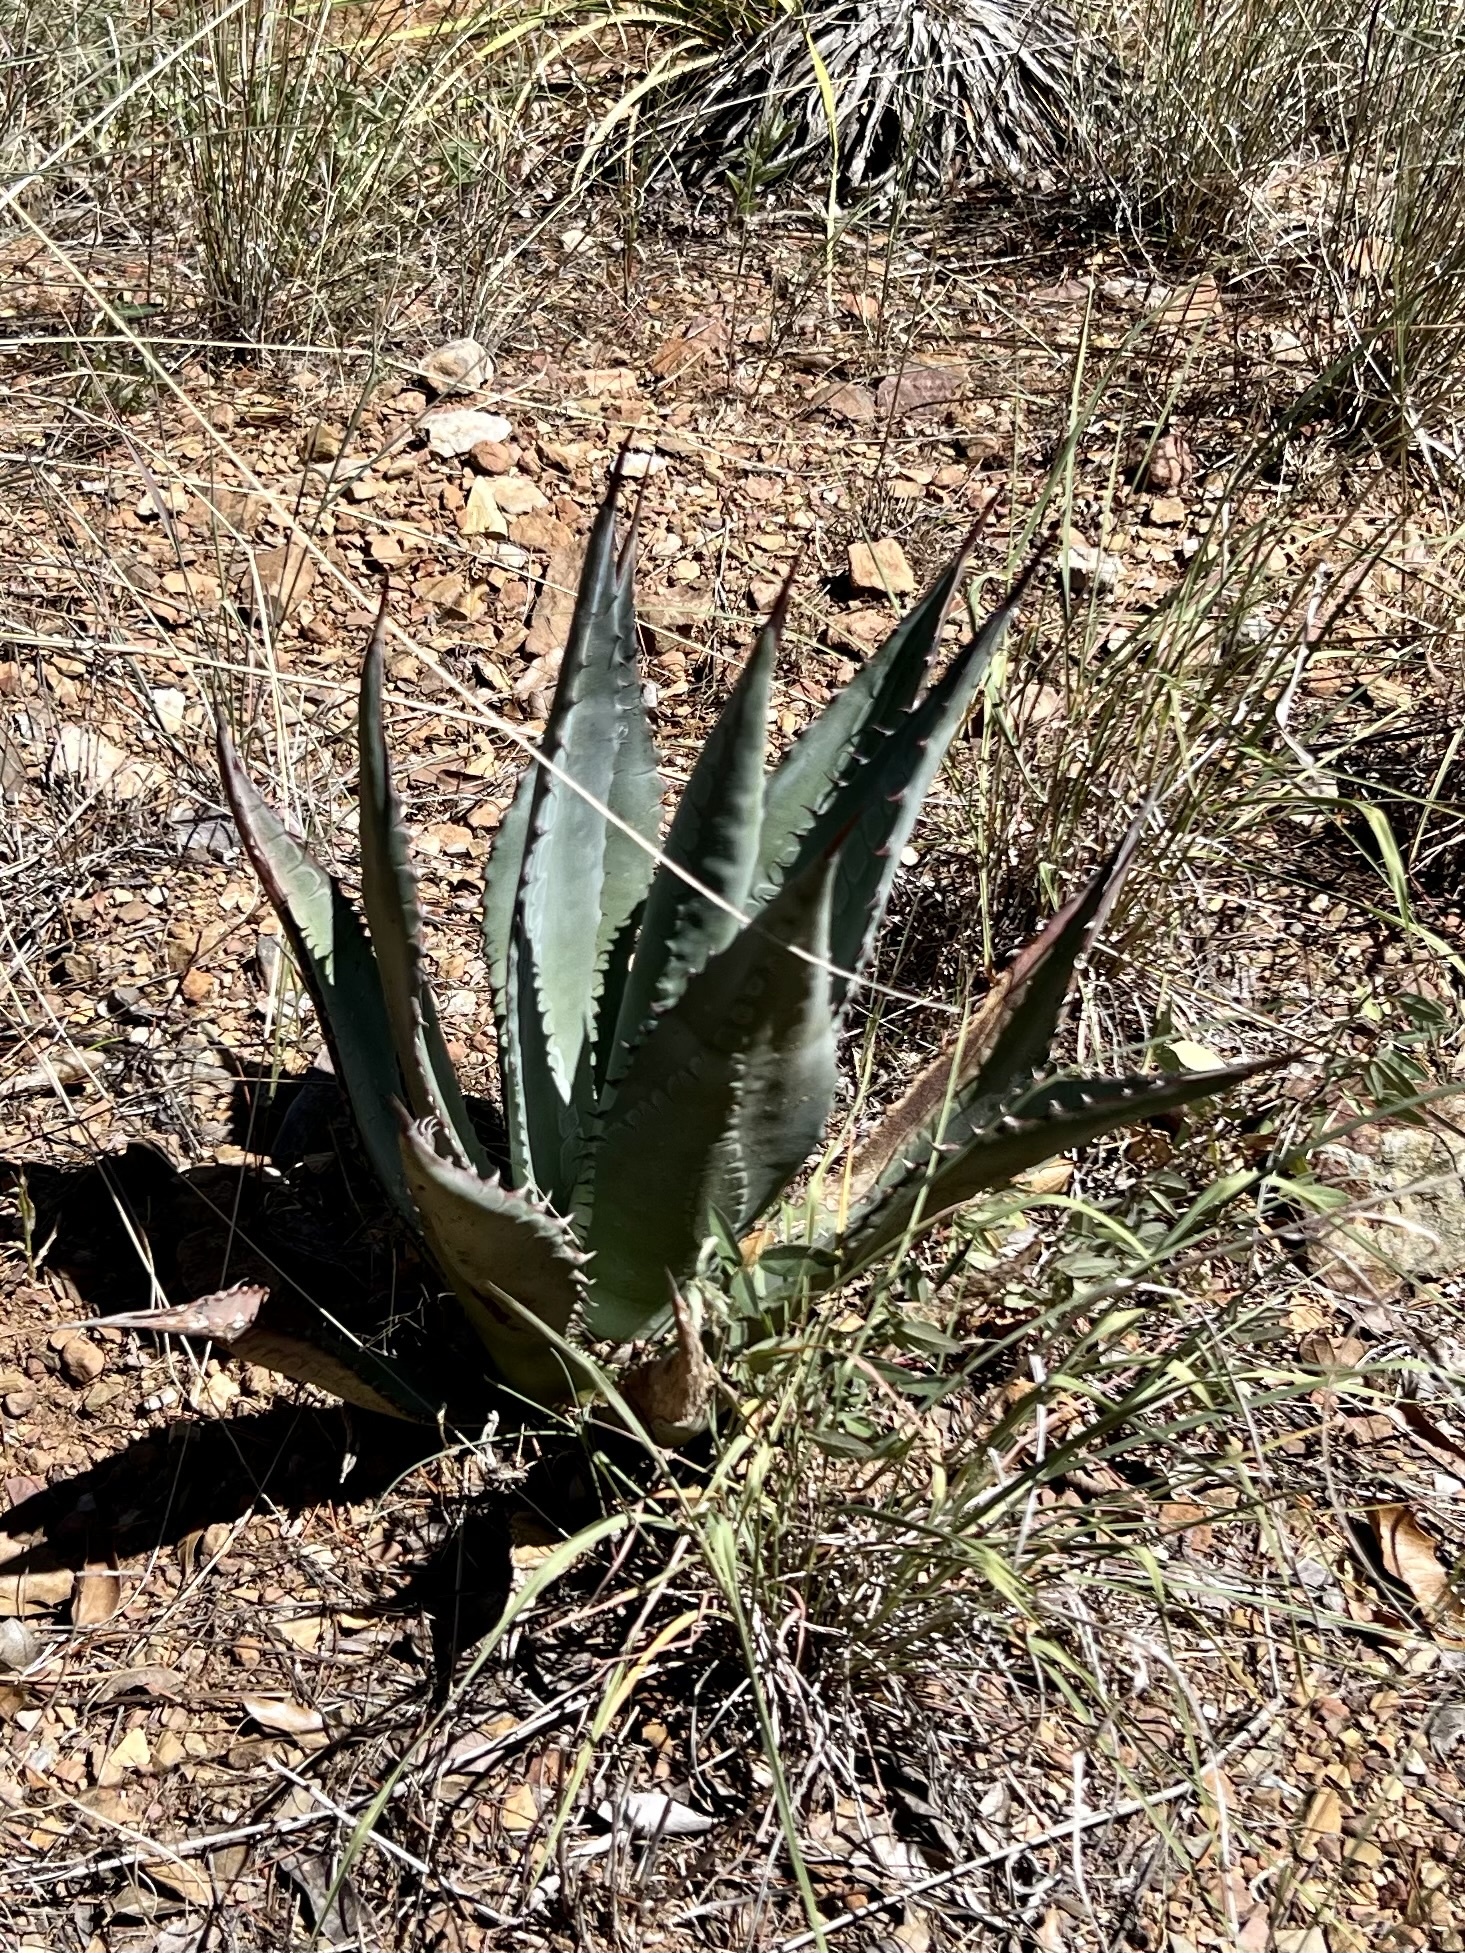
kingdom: Plantae
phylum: Tracheophyta
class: Liliopsida
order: Asparagales
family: Asparagaceae
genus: Agave
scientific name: Agave palmeri
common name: Palmer agave
